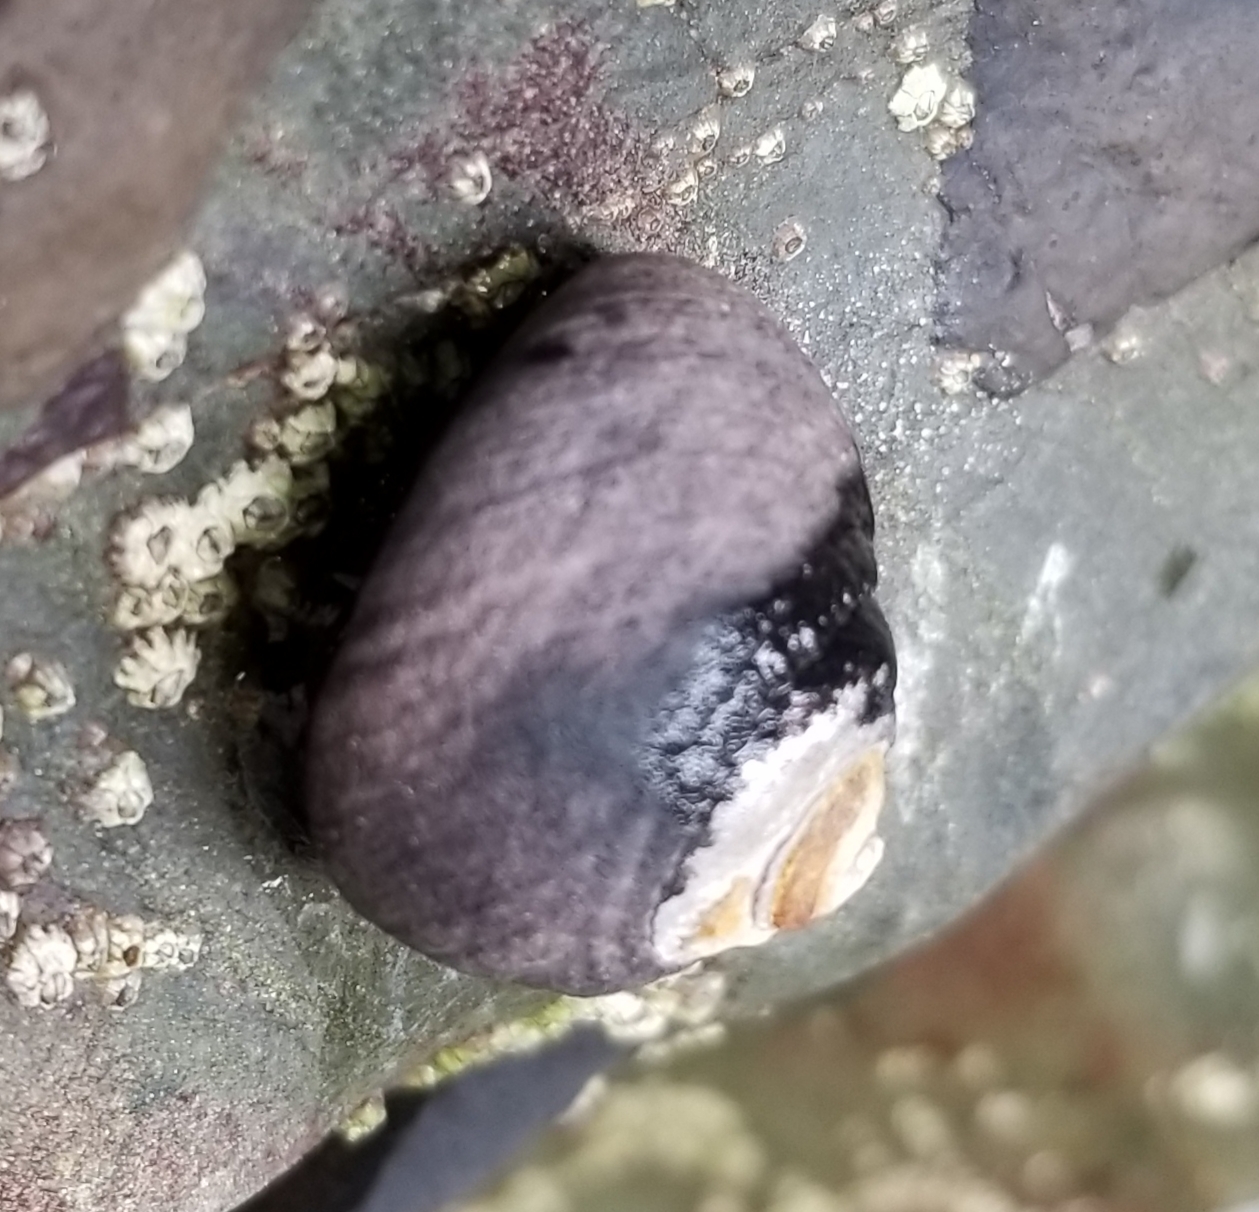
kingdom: Animalia
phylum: Mollusca
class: Gastropoda
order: Trochida
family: Tegulidae
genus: Tegula
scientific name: Tegula funebralis
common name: Black tegula
